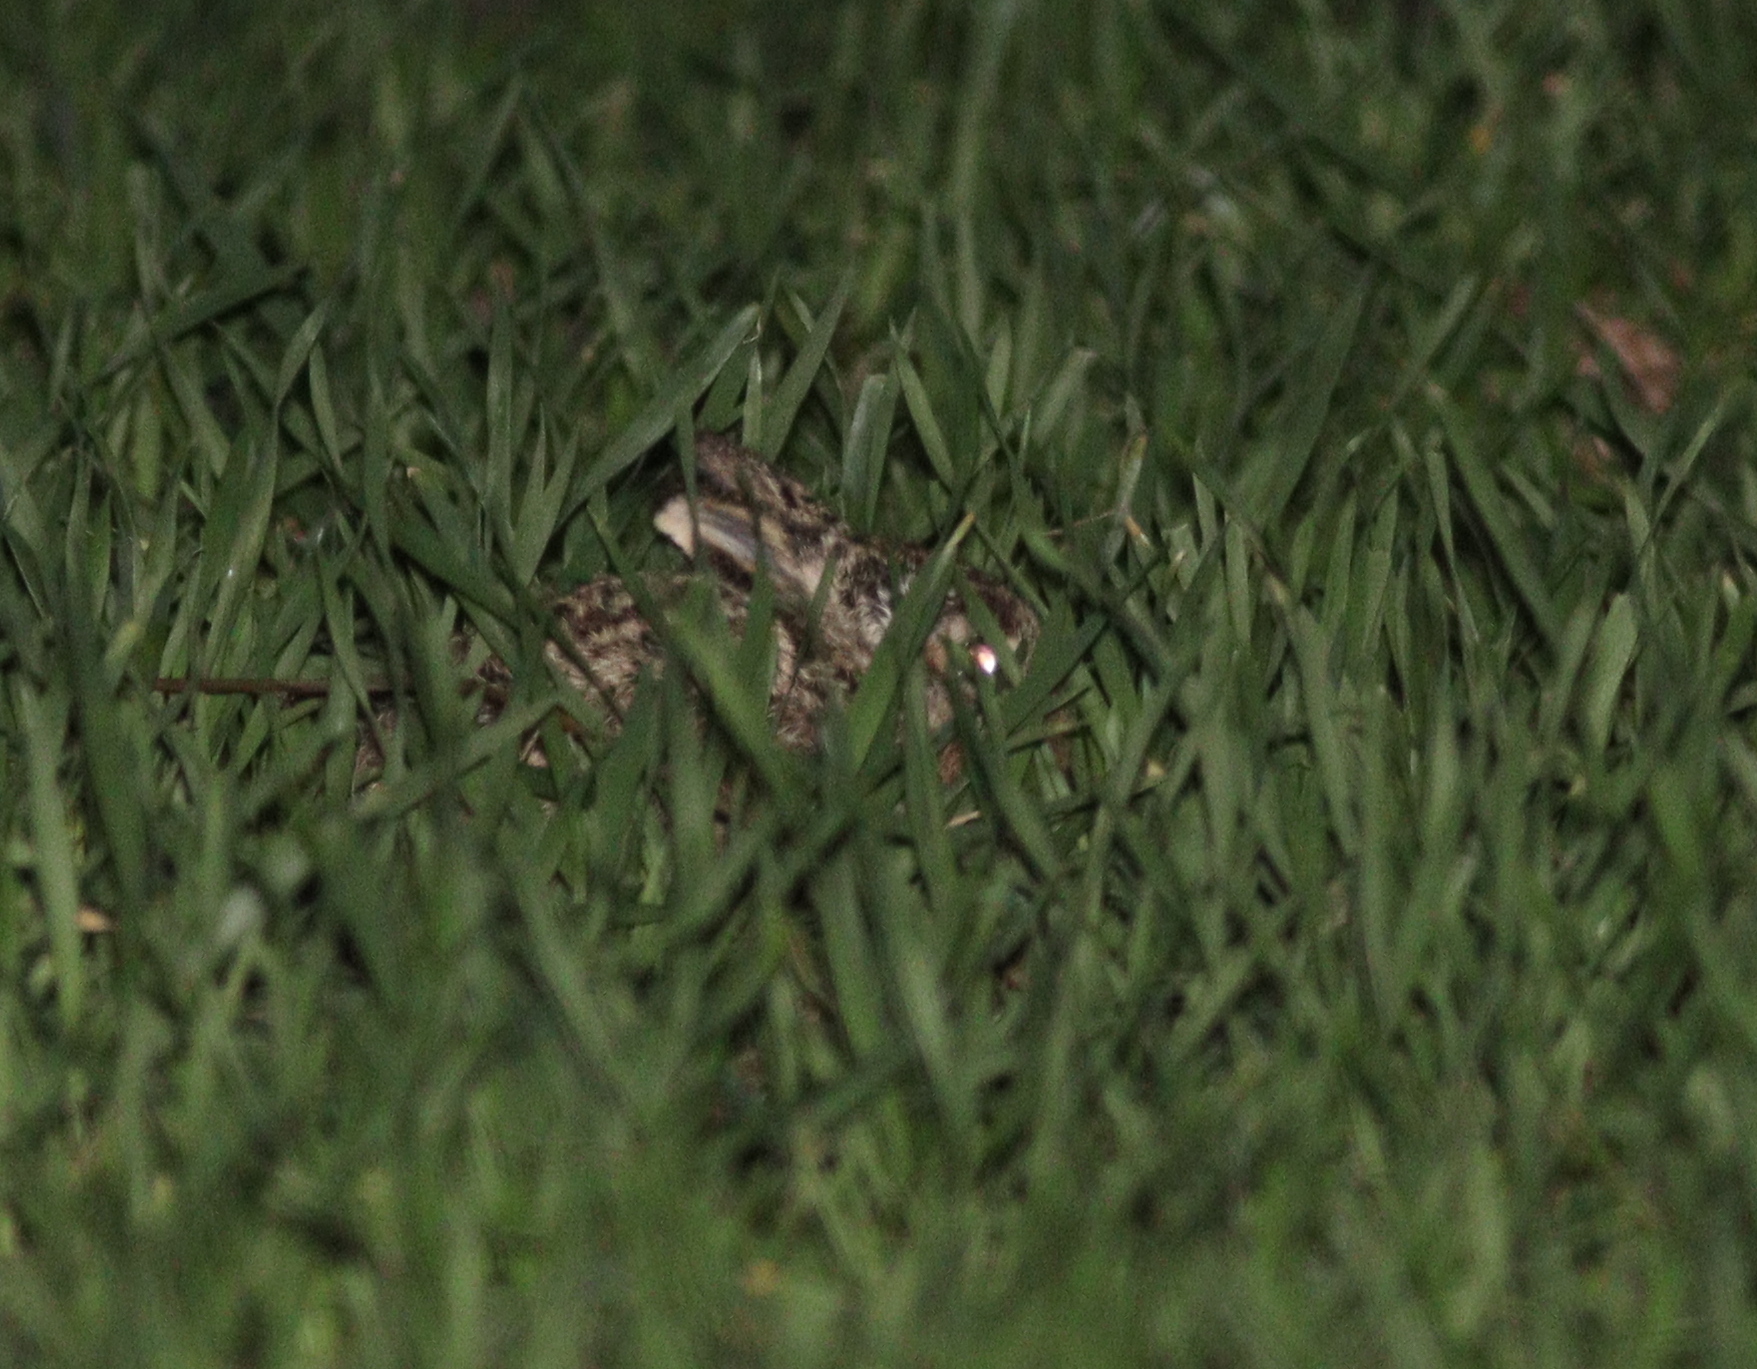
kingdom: Animalia
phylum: Chordata
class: Mammalia
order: Lagomorpha
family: Leporidae
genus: Lepus
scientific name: Lepus europaeus
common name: European hare
